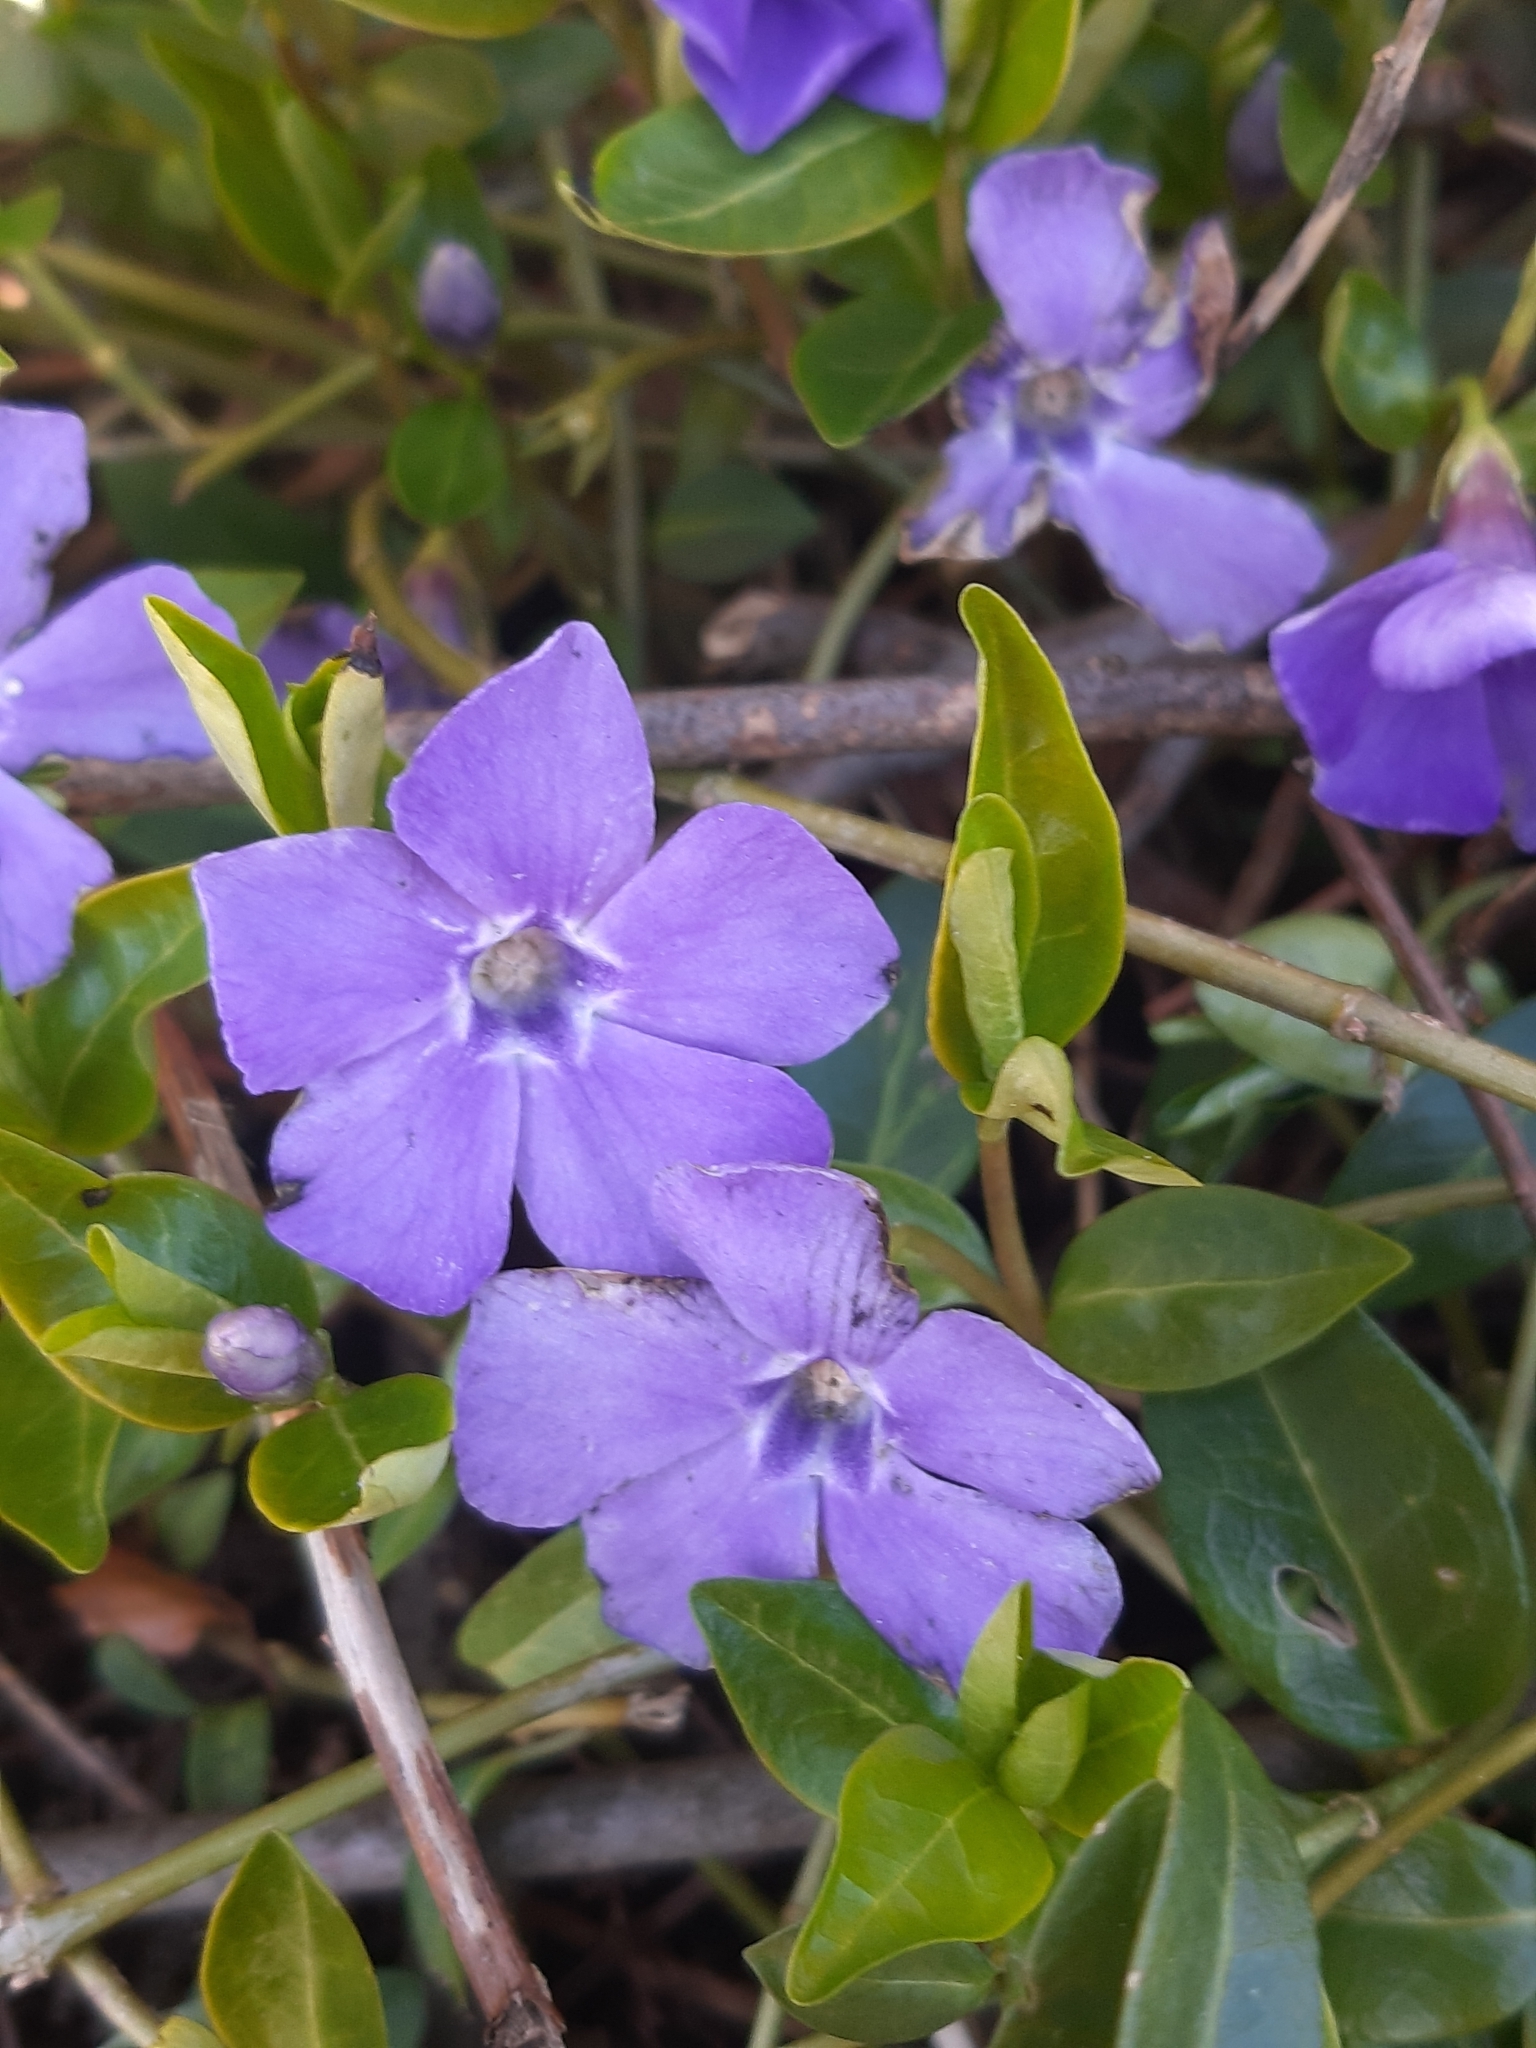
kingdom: Plantae
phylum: Tracheophyta
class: Magnoliopsida
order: Gentianales
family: Apocynaceae
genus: Vinca
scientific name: Vinca minor
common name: Lesser periwinkle
